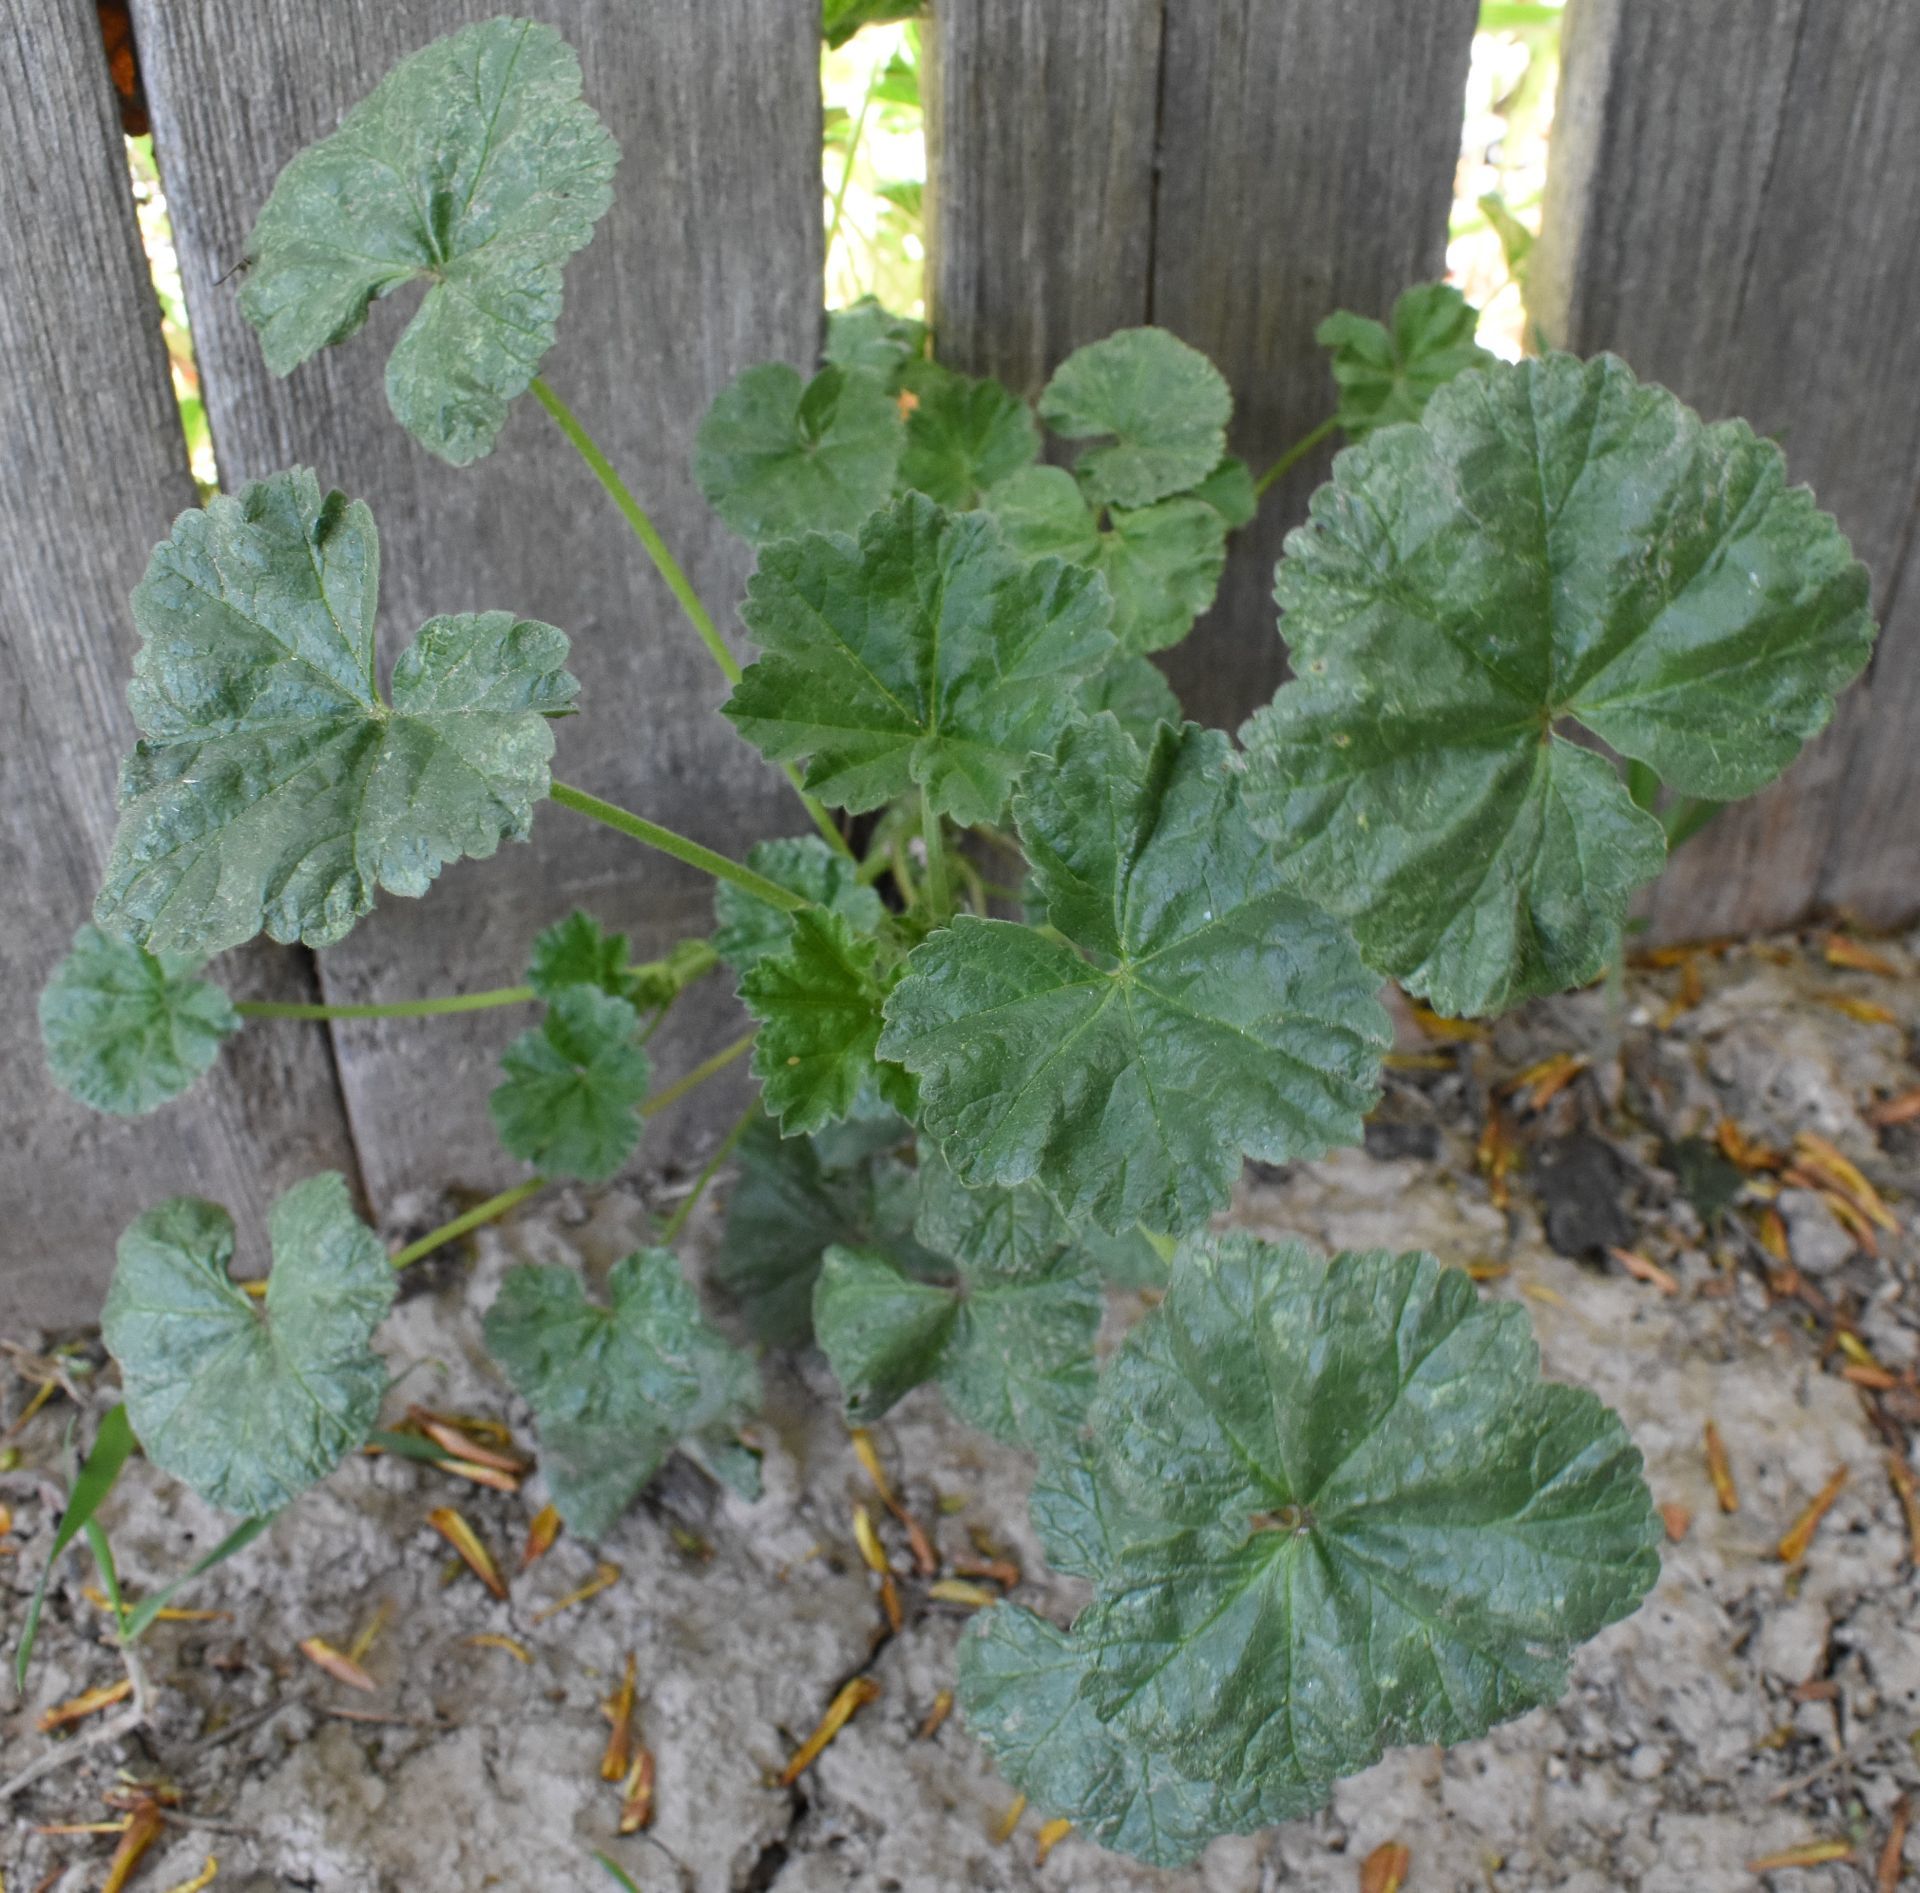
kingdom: Plantae
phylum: Tracheophyta
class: Magnoliopsida
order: Malvales
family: Malvaceae
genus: Malva
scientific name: Malva neglecta
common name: Common mallow
